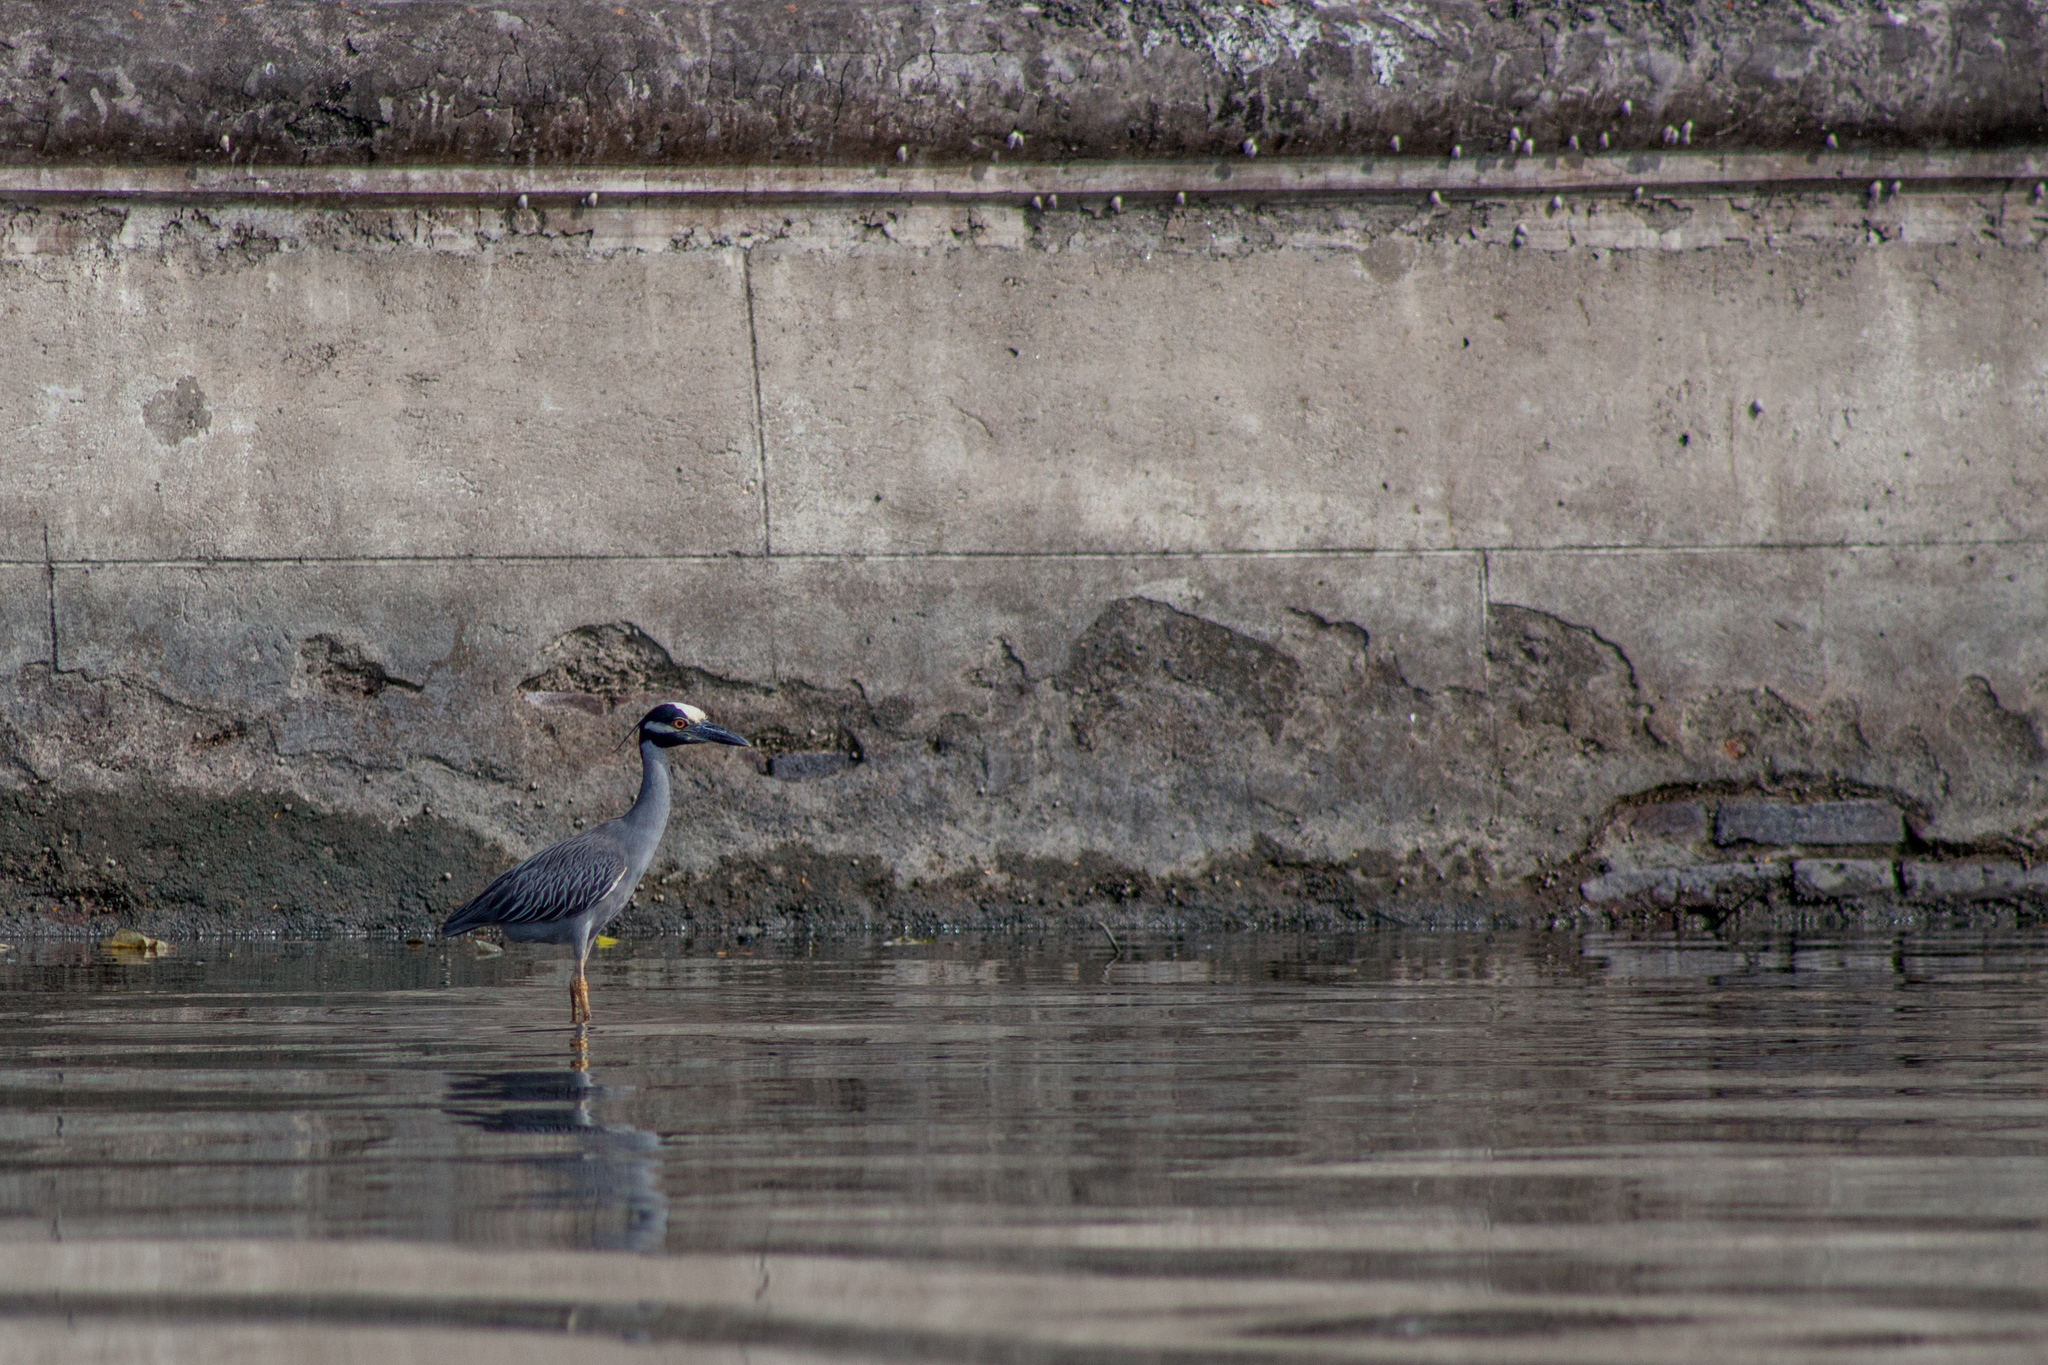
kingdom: Animalia
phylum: Chordata
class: Aves
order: Pelecaniformes
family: Ardeidae
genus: Nyctanassa
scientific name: Nyctanassa violacea
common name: Yellow-crowned night heron
